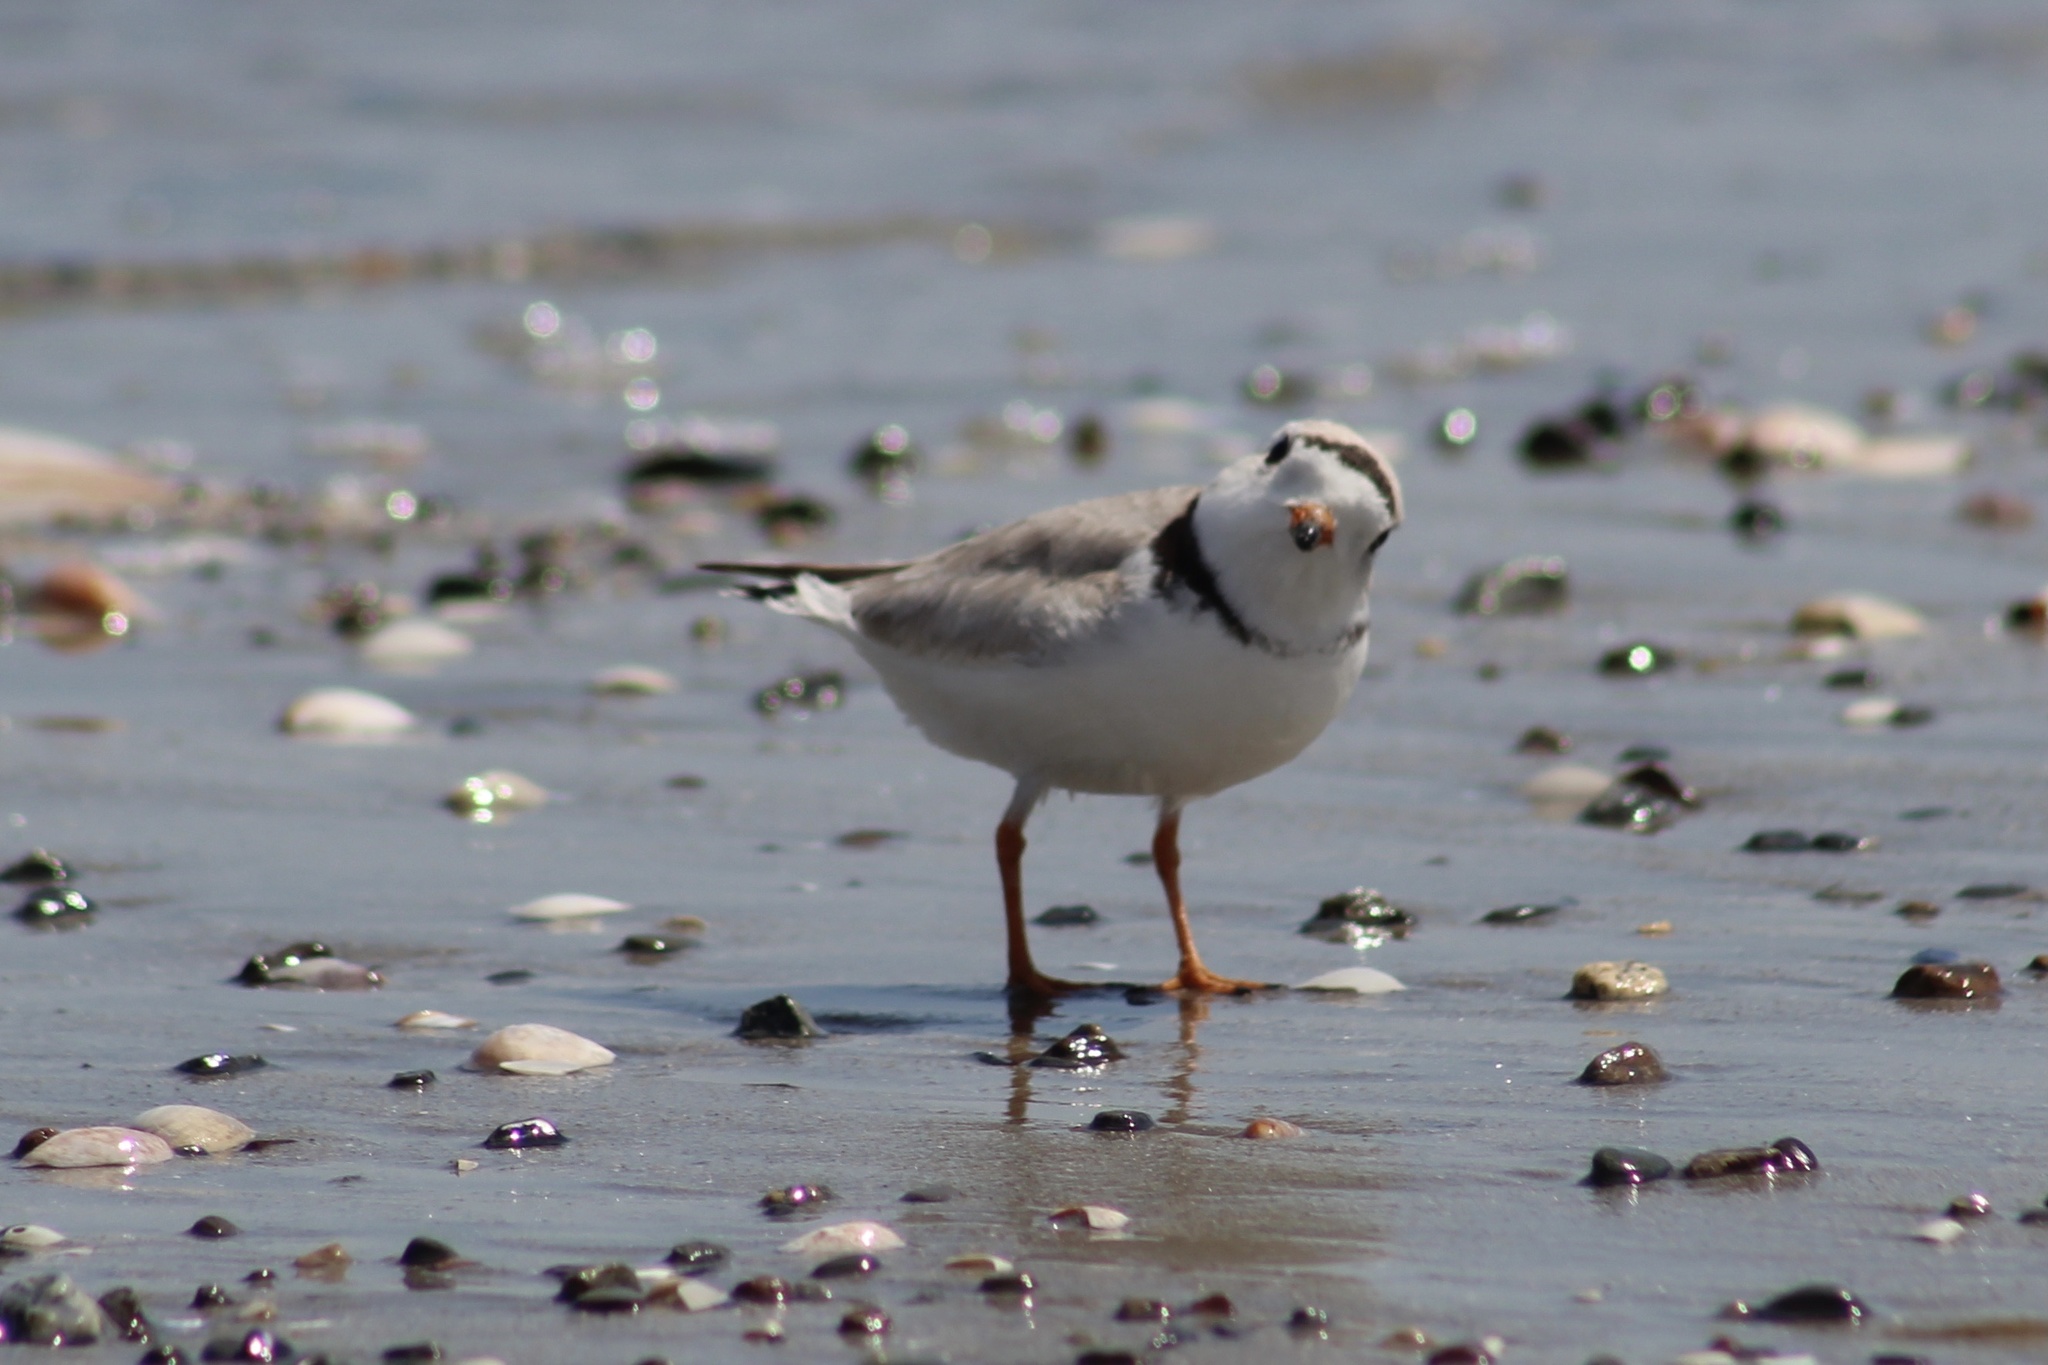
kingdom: Animalia
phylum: Chordata
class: Aves
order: Charadriiformes
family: Charadriidae
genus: Charadrius
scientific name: Charadrius melodus
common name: Piping plover
